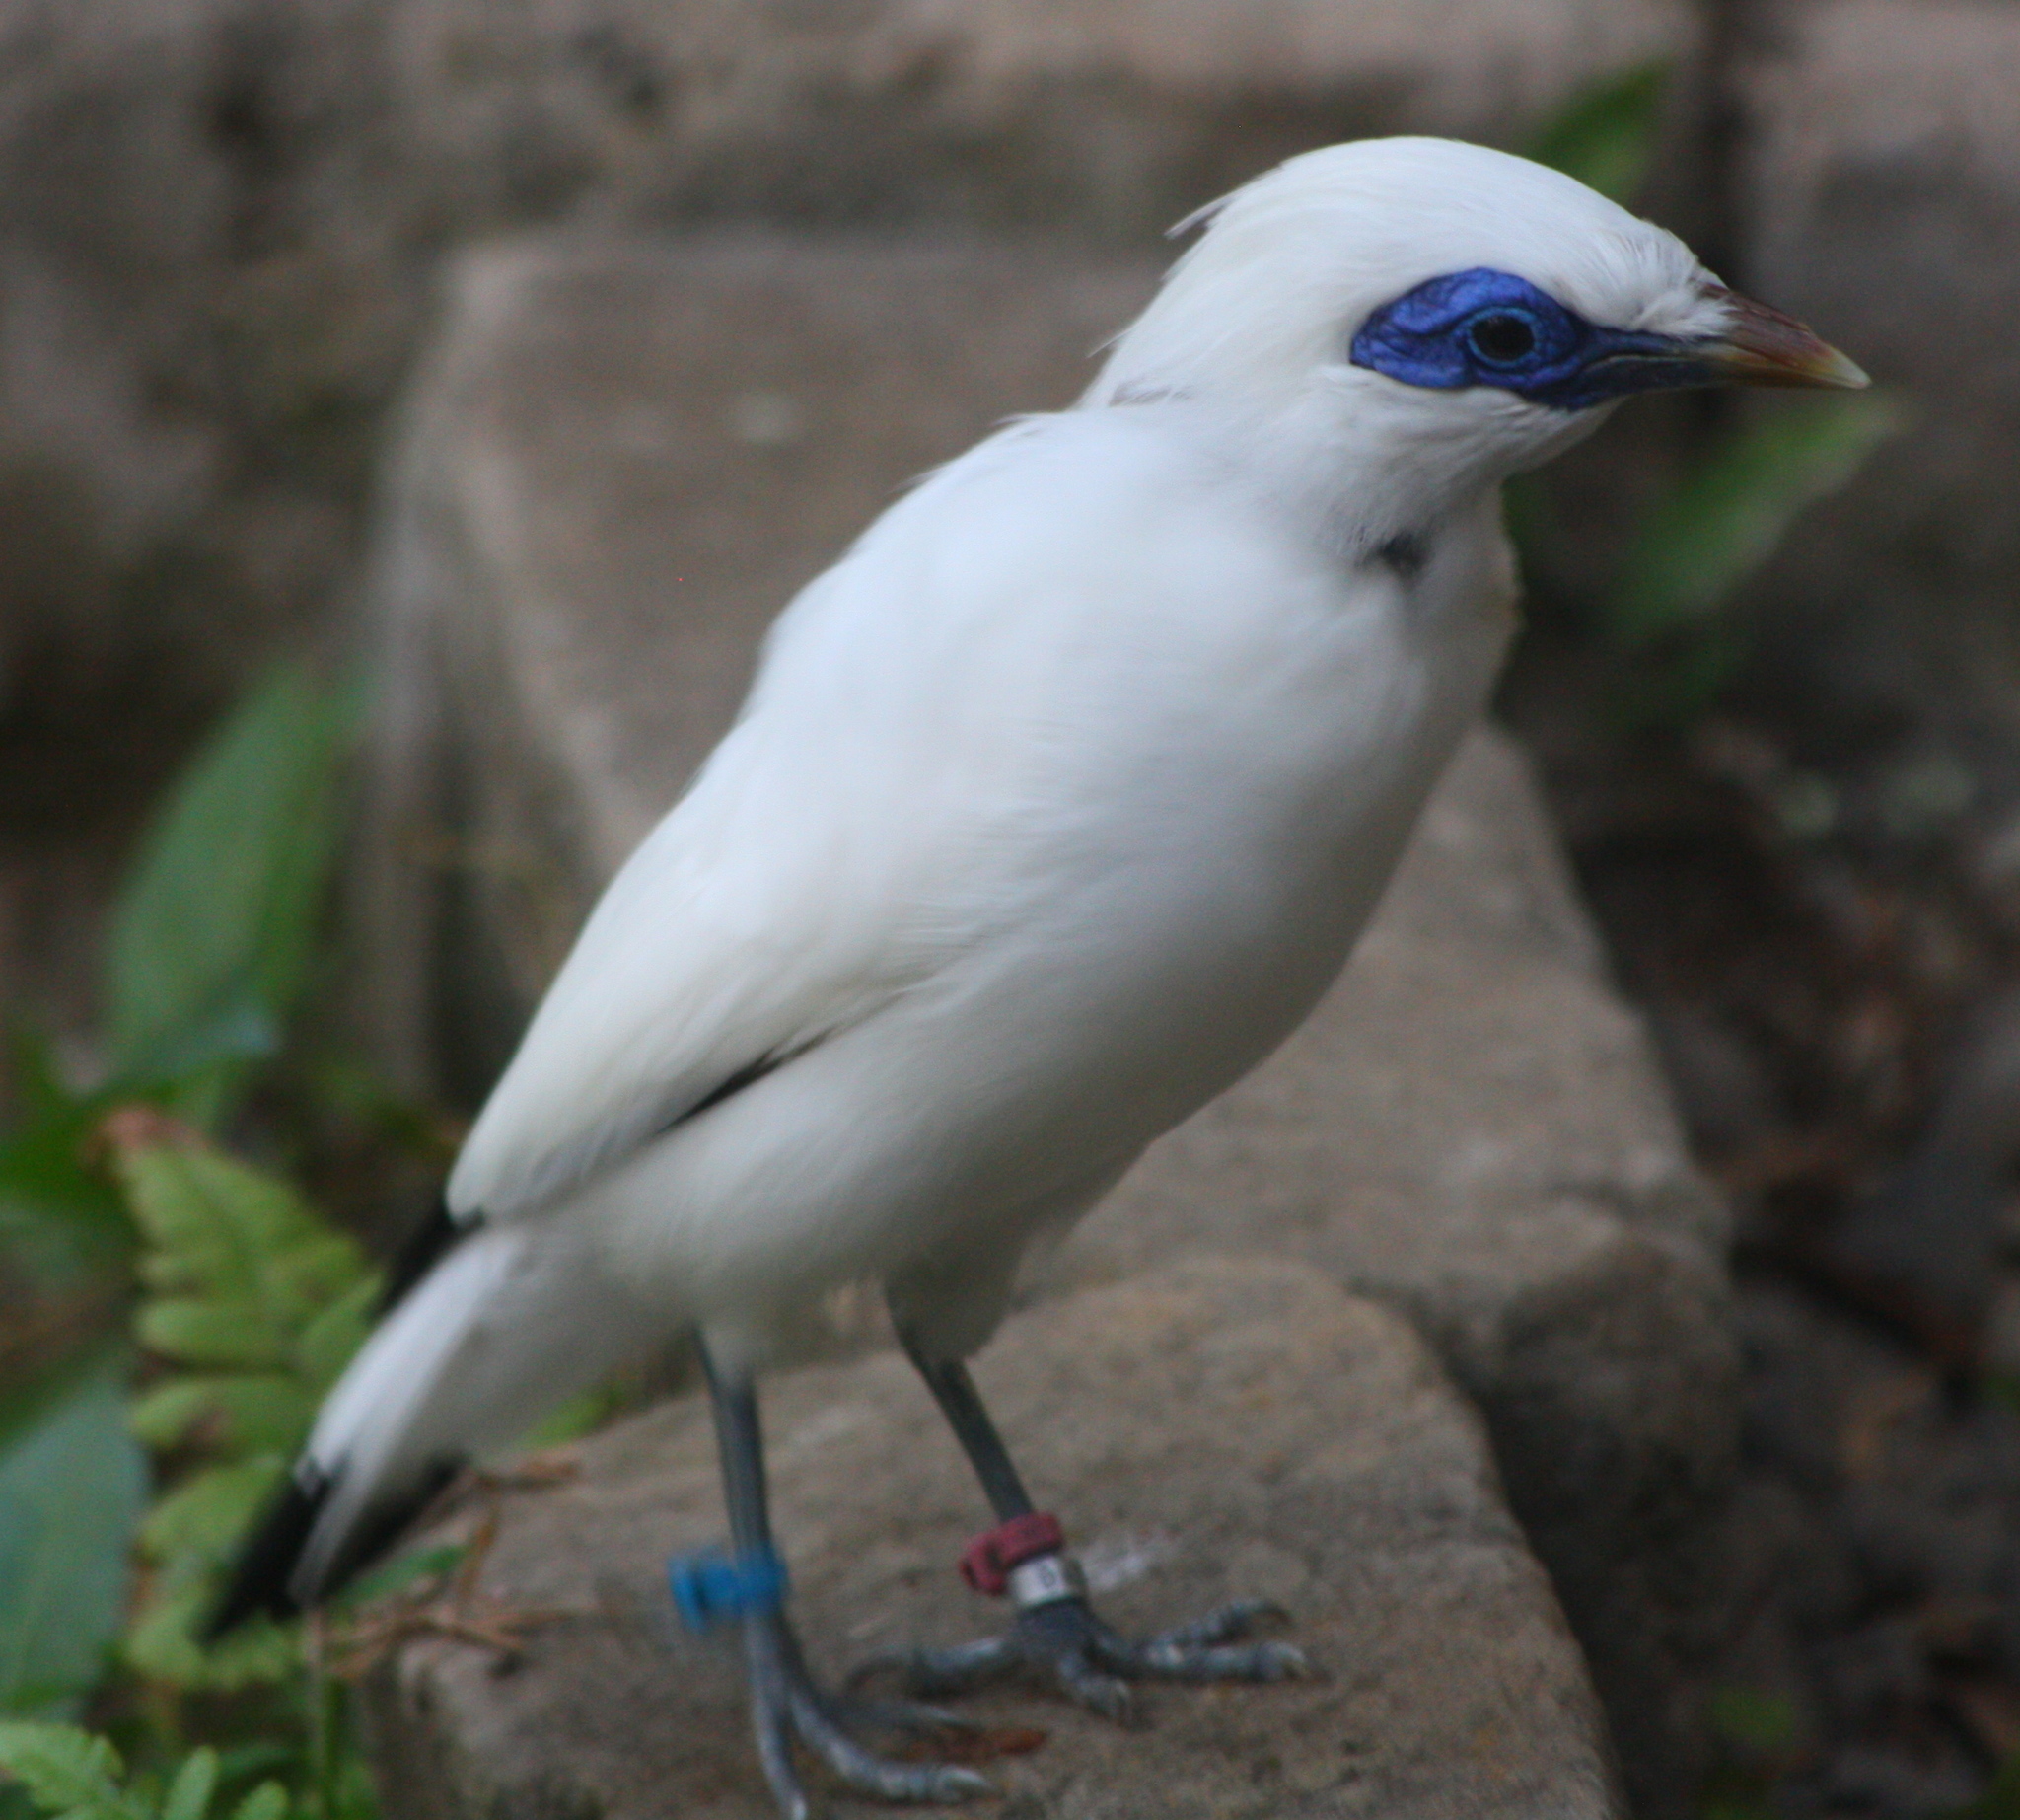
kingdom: Animalia
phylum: Chordata
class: Aves
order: Passeriformes
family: Sturnidae
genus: Leucopsar
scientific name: Leucopsar rothschildi
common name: Bali myna
